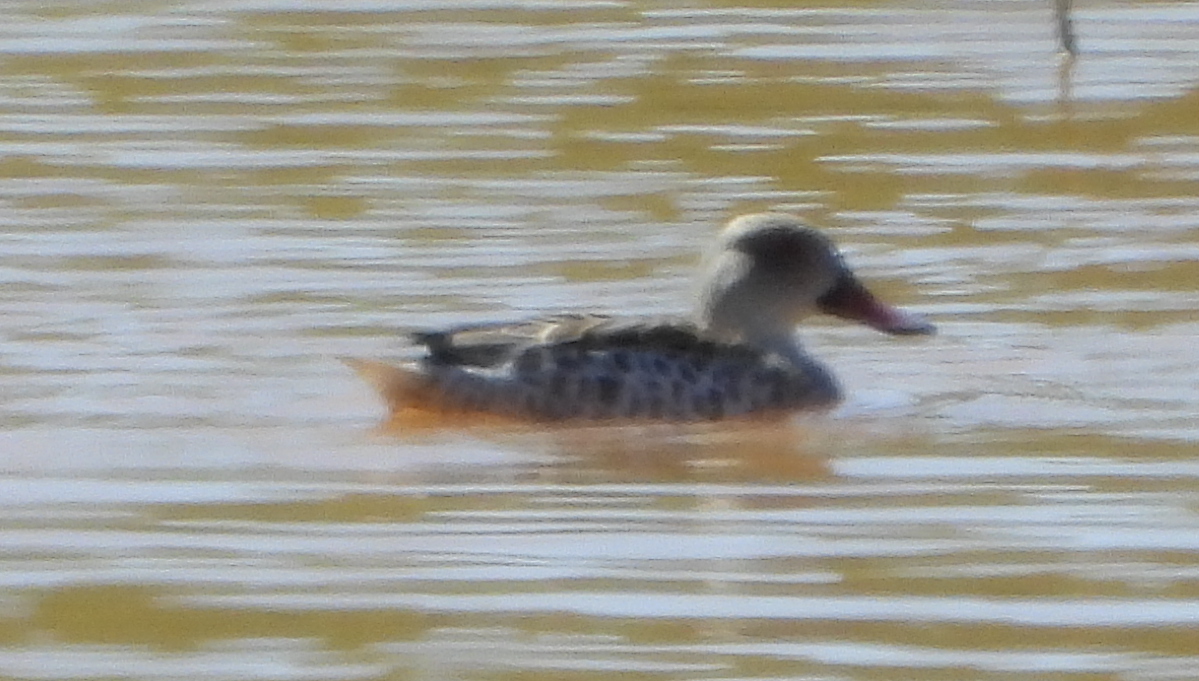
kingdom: Animalia
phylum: Chordata
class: Aves
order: Anseriformes
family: Anatidae
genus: Anas
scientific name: Anas capensis
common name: Cape teal
